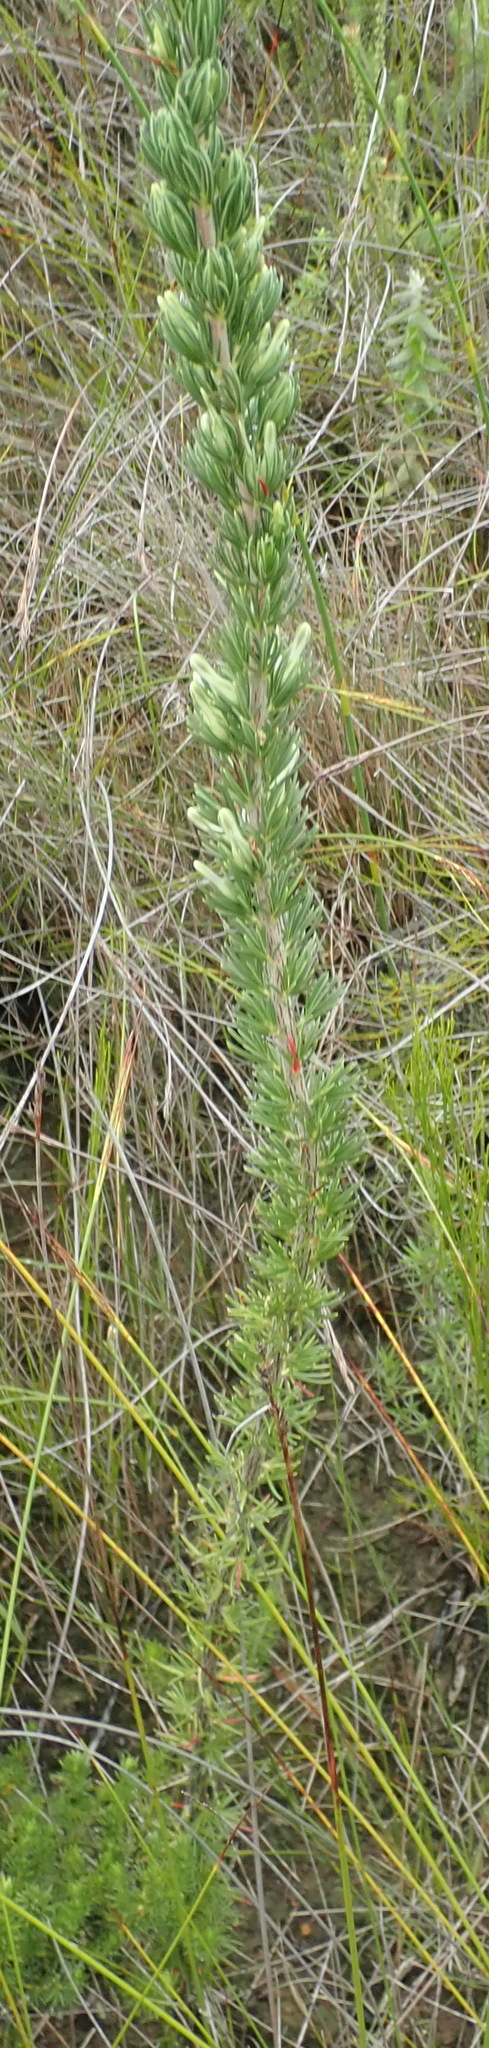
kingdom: Plantae
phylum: Tracheophyta
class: Magnoliopsida
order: Ericales
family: Ericaceae
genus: Erica
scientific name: Erica nabea
